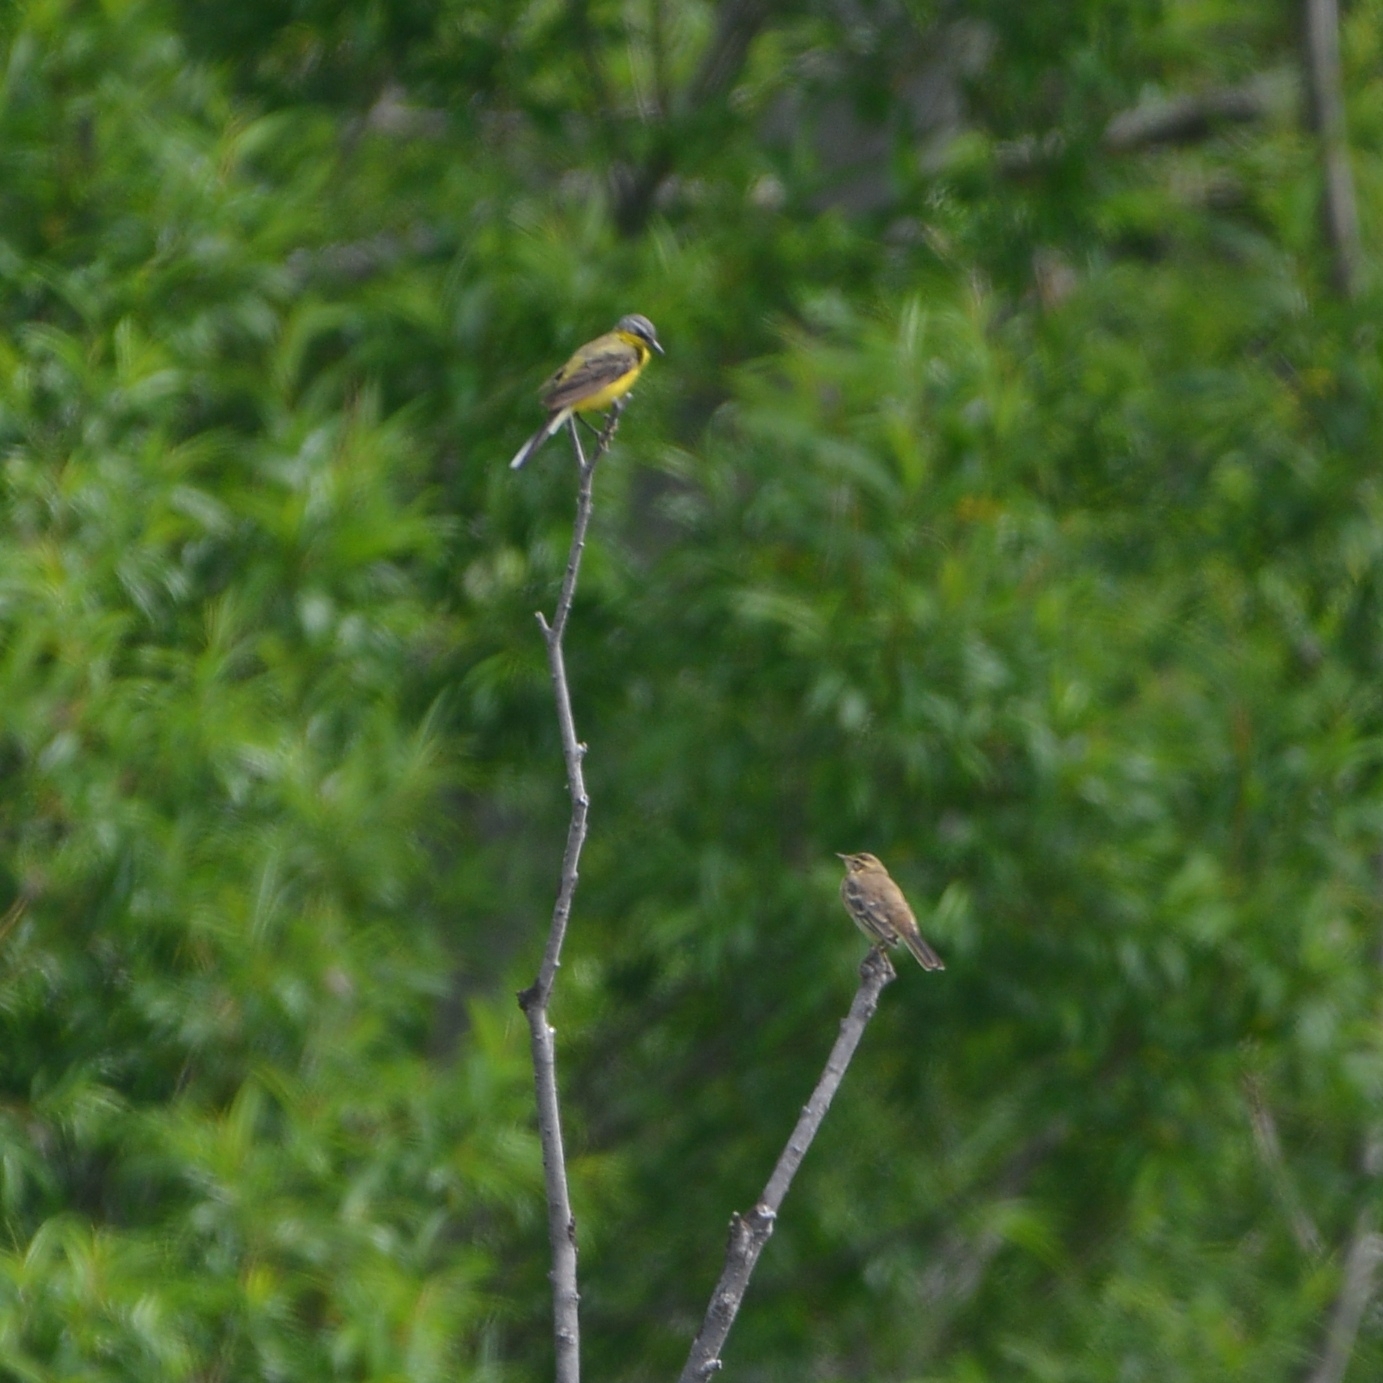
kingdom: Animalia
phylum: Chordata
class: Aves
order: Passeriformes
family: Motacillidae
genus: Motacilla
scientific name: Motacilla tschutschensis
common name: Eastern yellow wagtail
